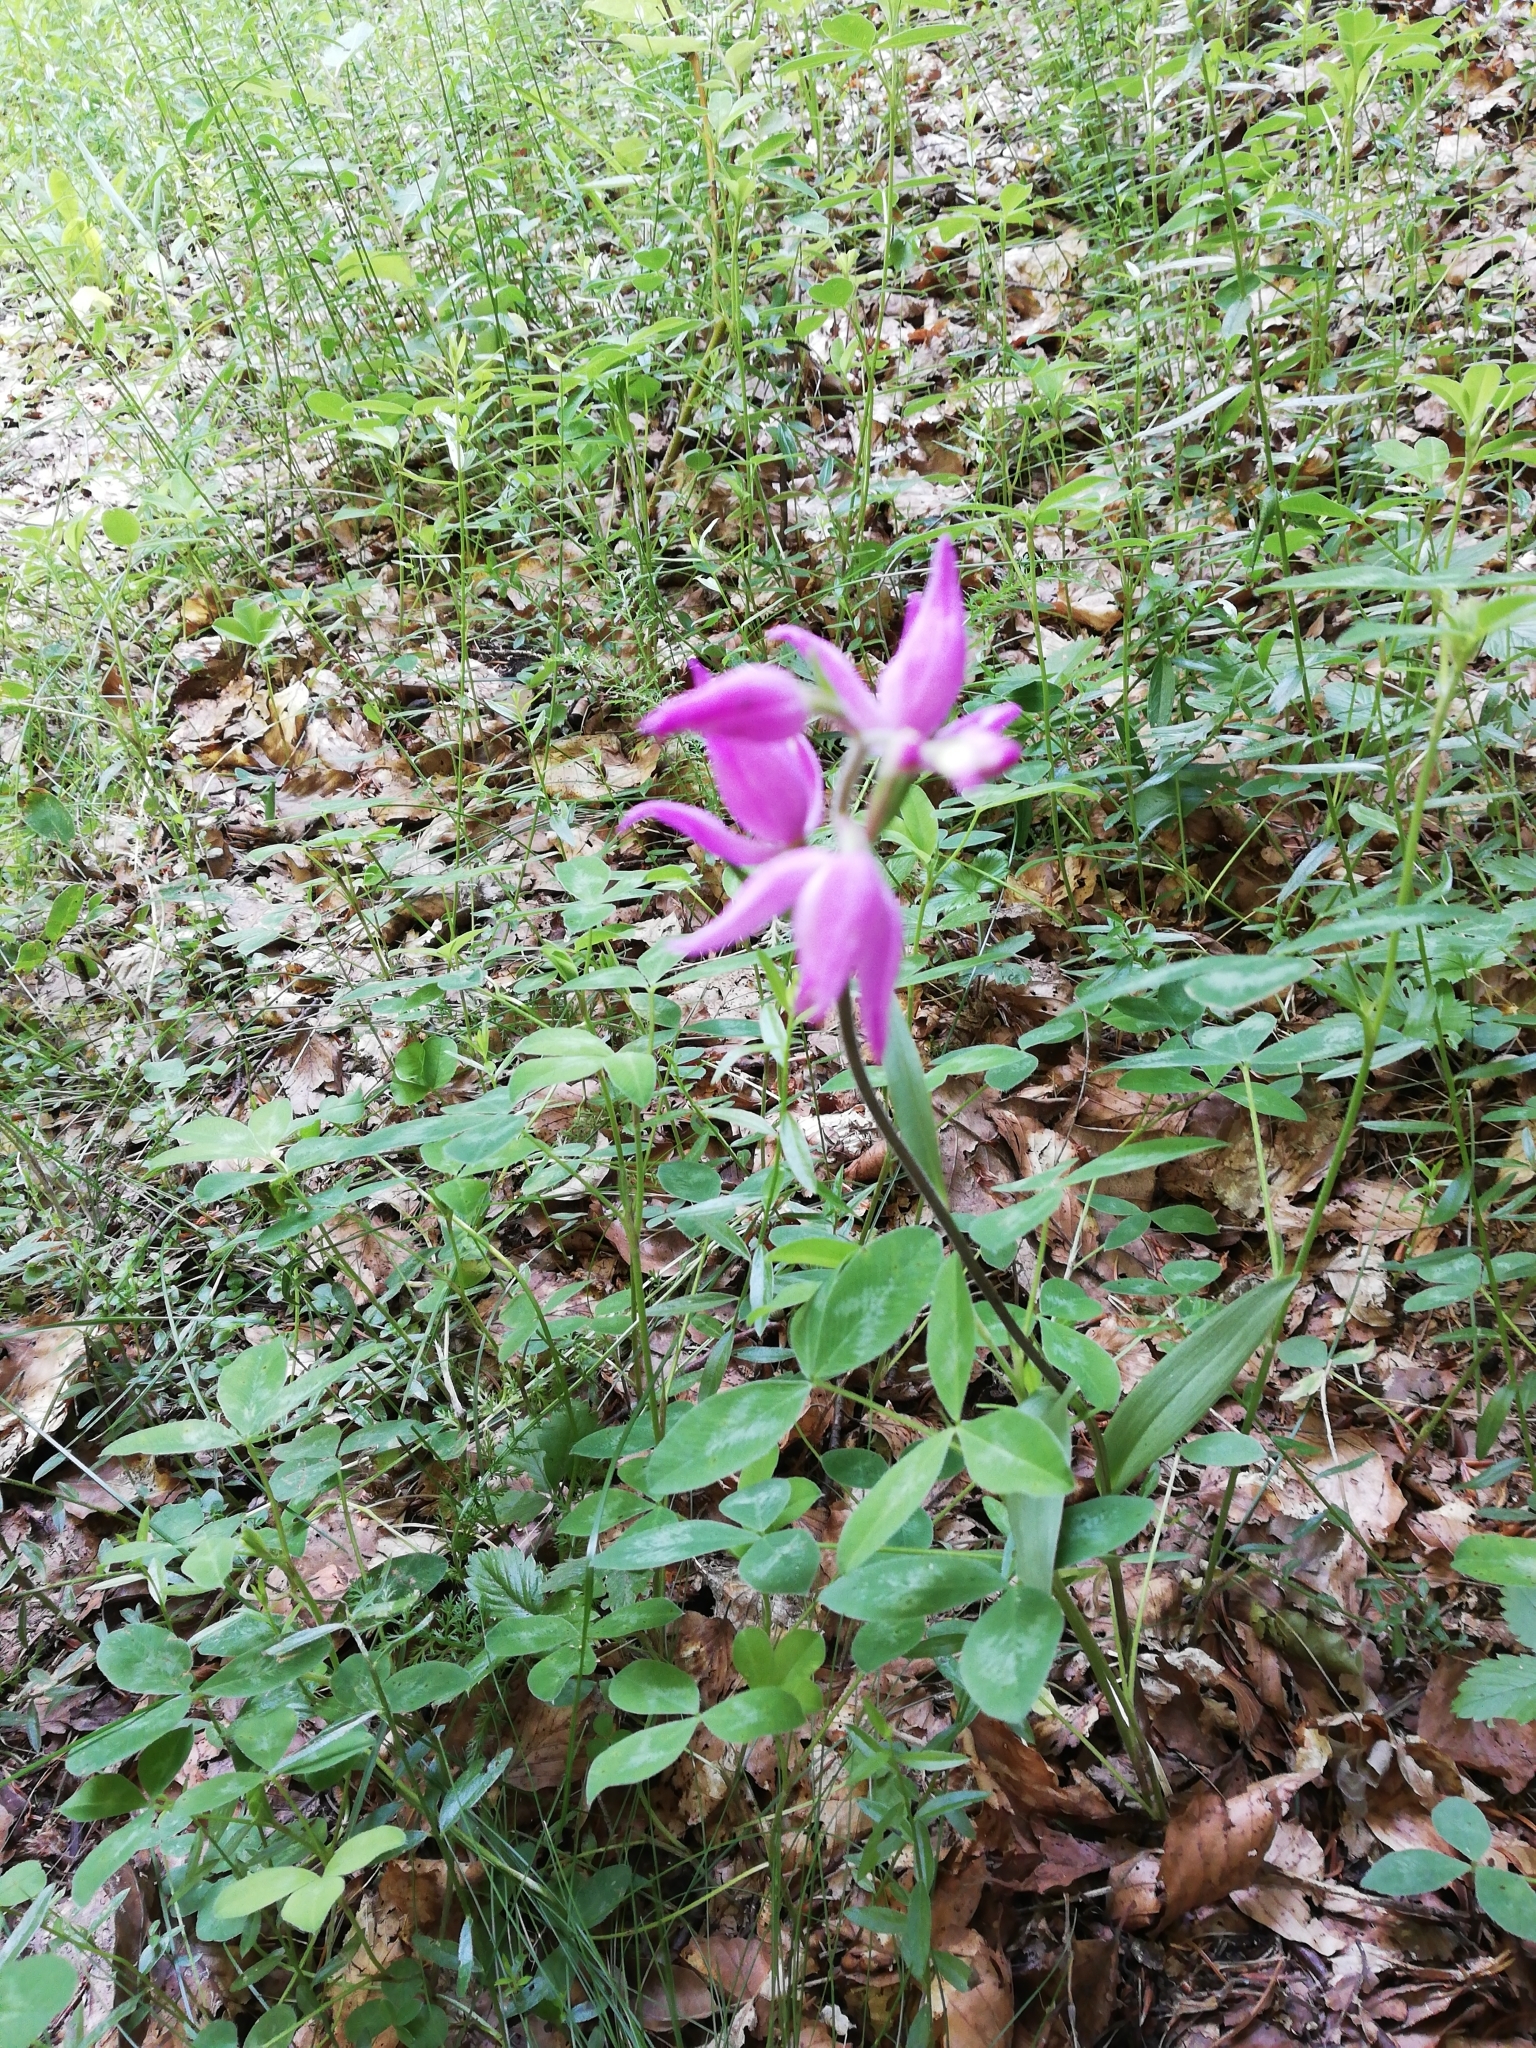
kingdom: Plantae
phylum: Tracheophyta
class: Liliopsida
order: Asparagales
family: Orchidaceae
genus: Cephalanthera
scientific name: Cephalanthera rubra
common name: Red helleborine
